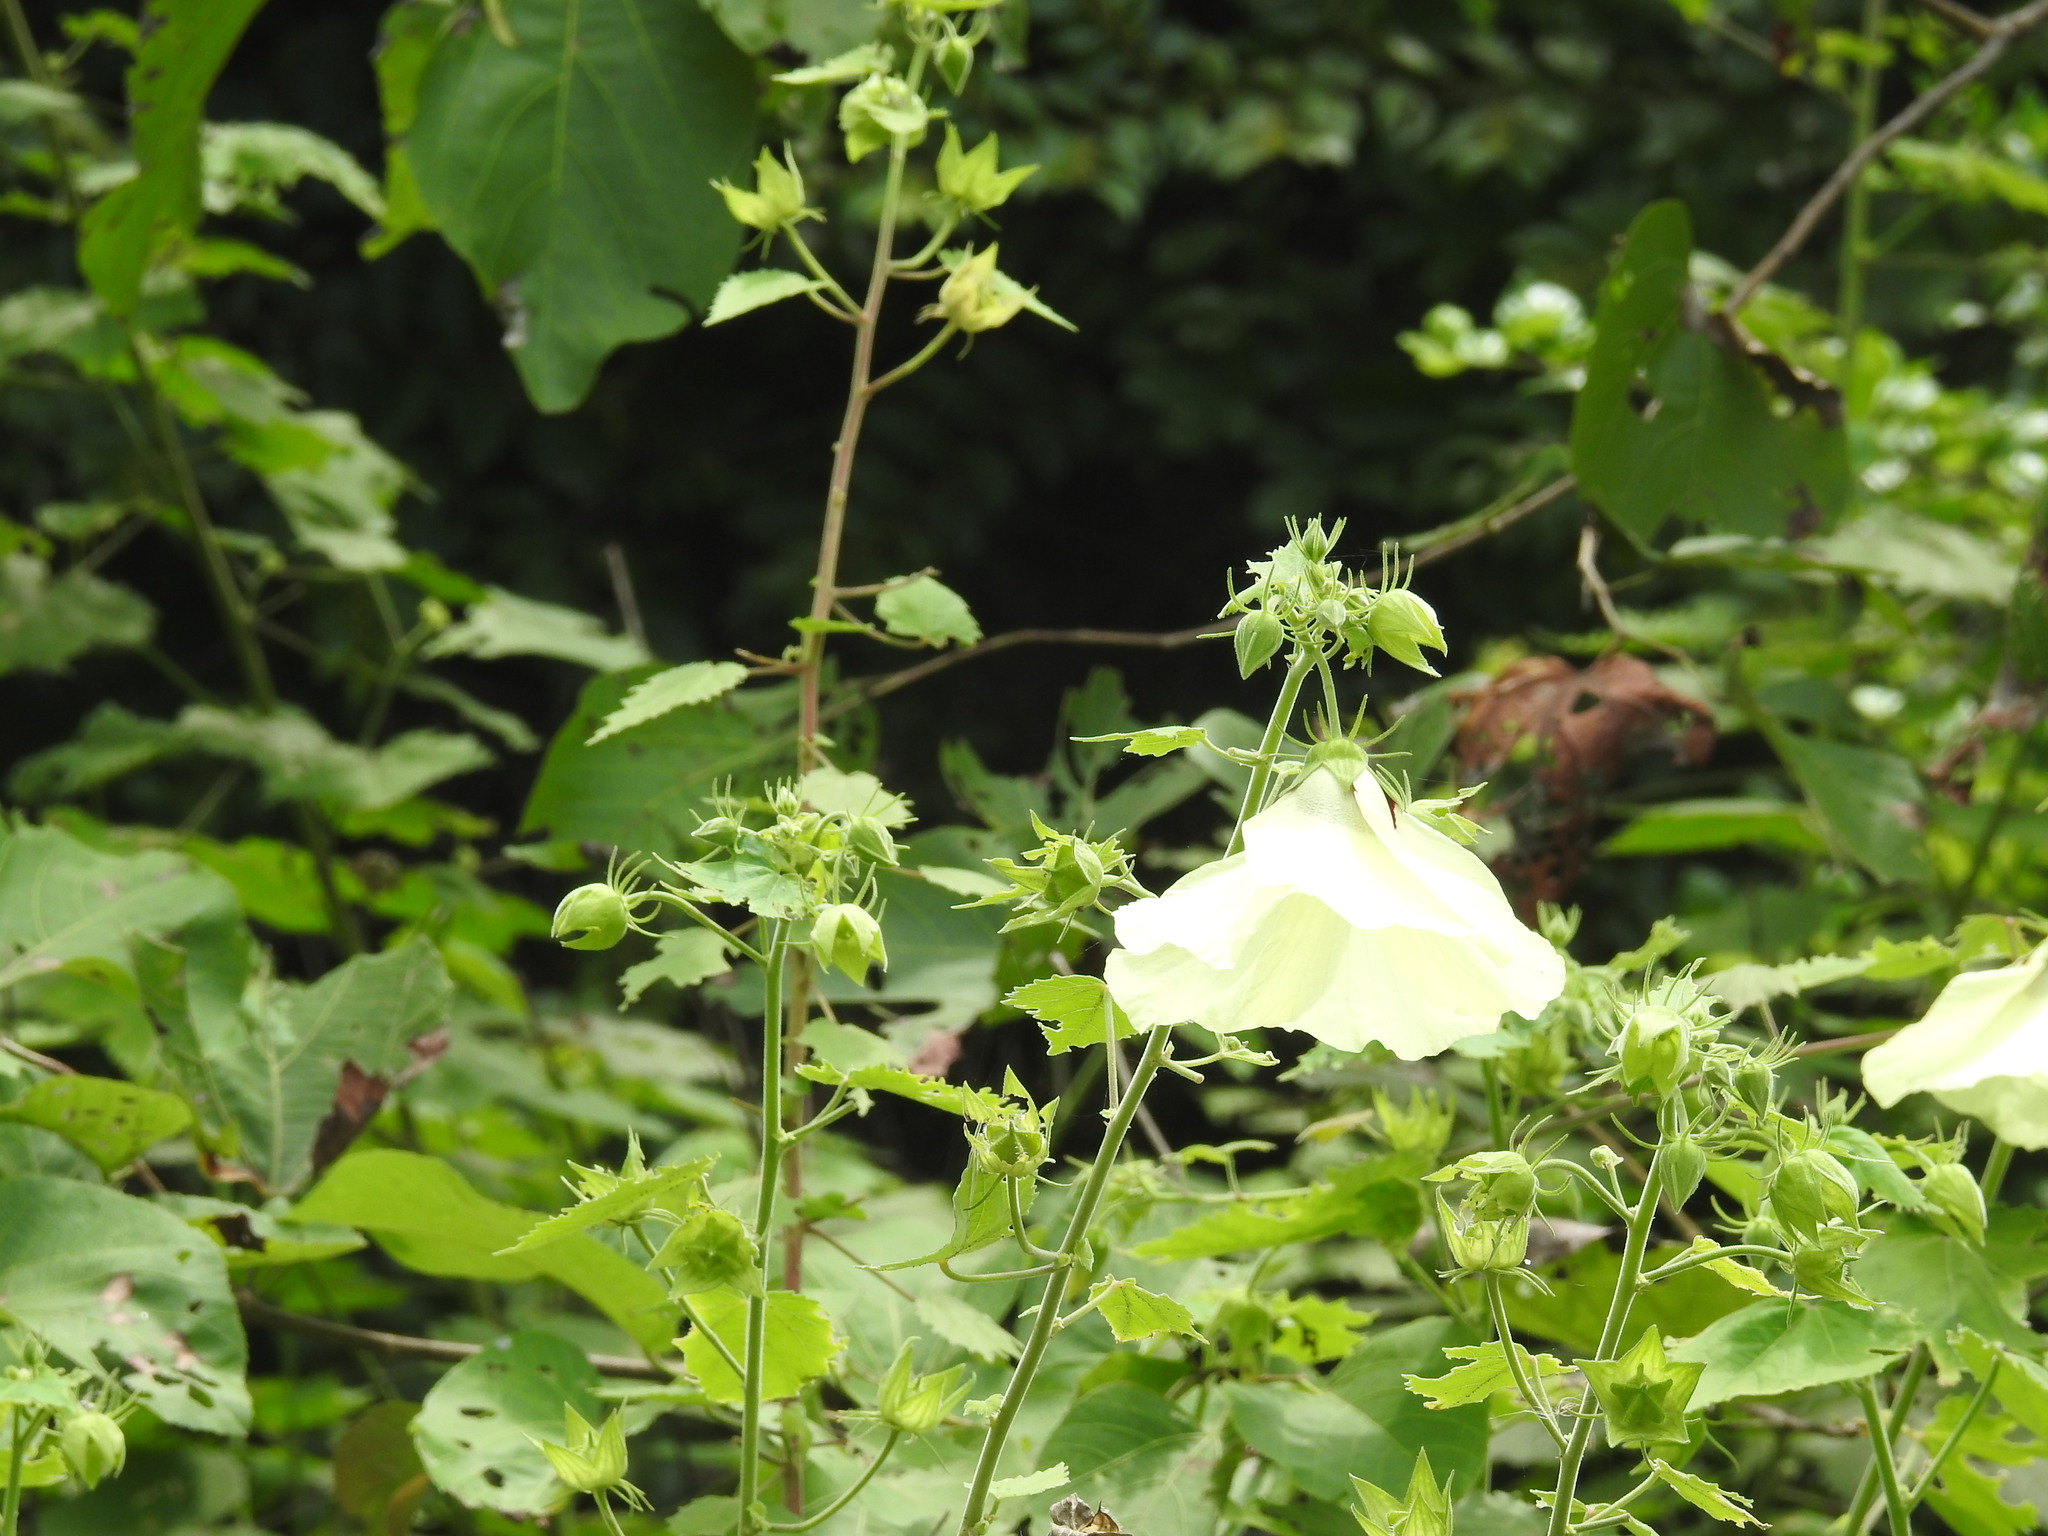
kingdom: Plantae
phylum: Tracheophyta
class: Magnoliopsida
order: Malvales
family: Malvaceae
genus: Hibiscus
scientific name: Hibiscus vitifolius
